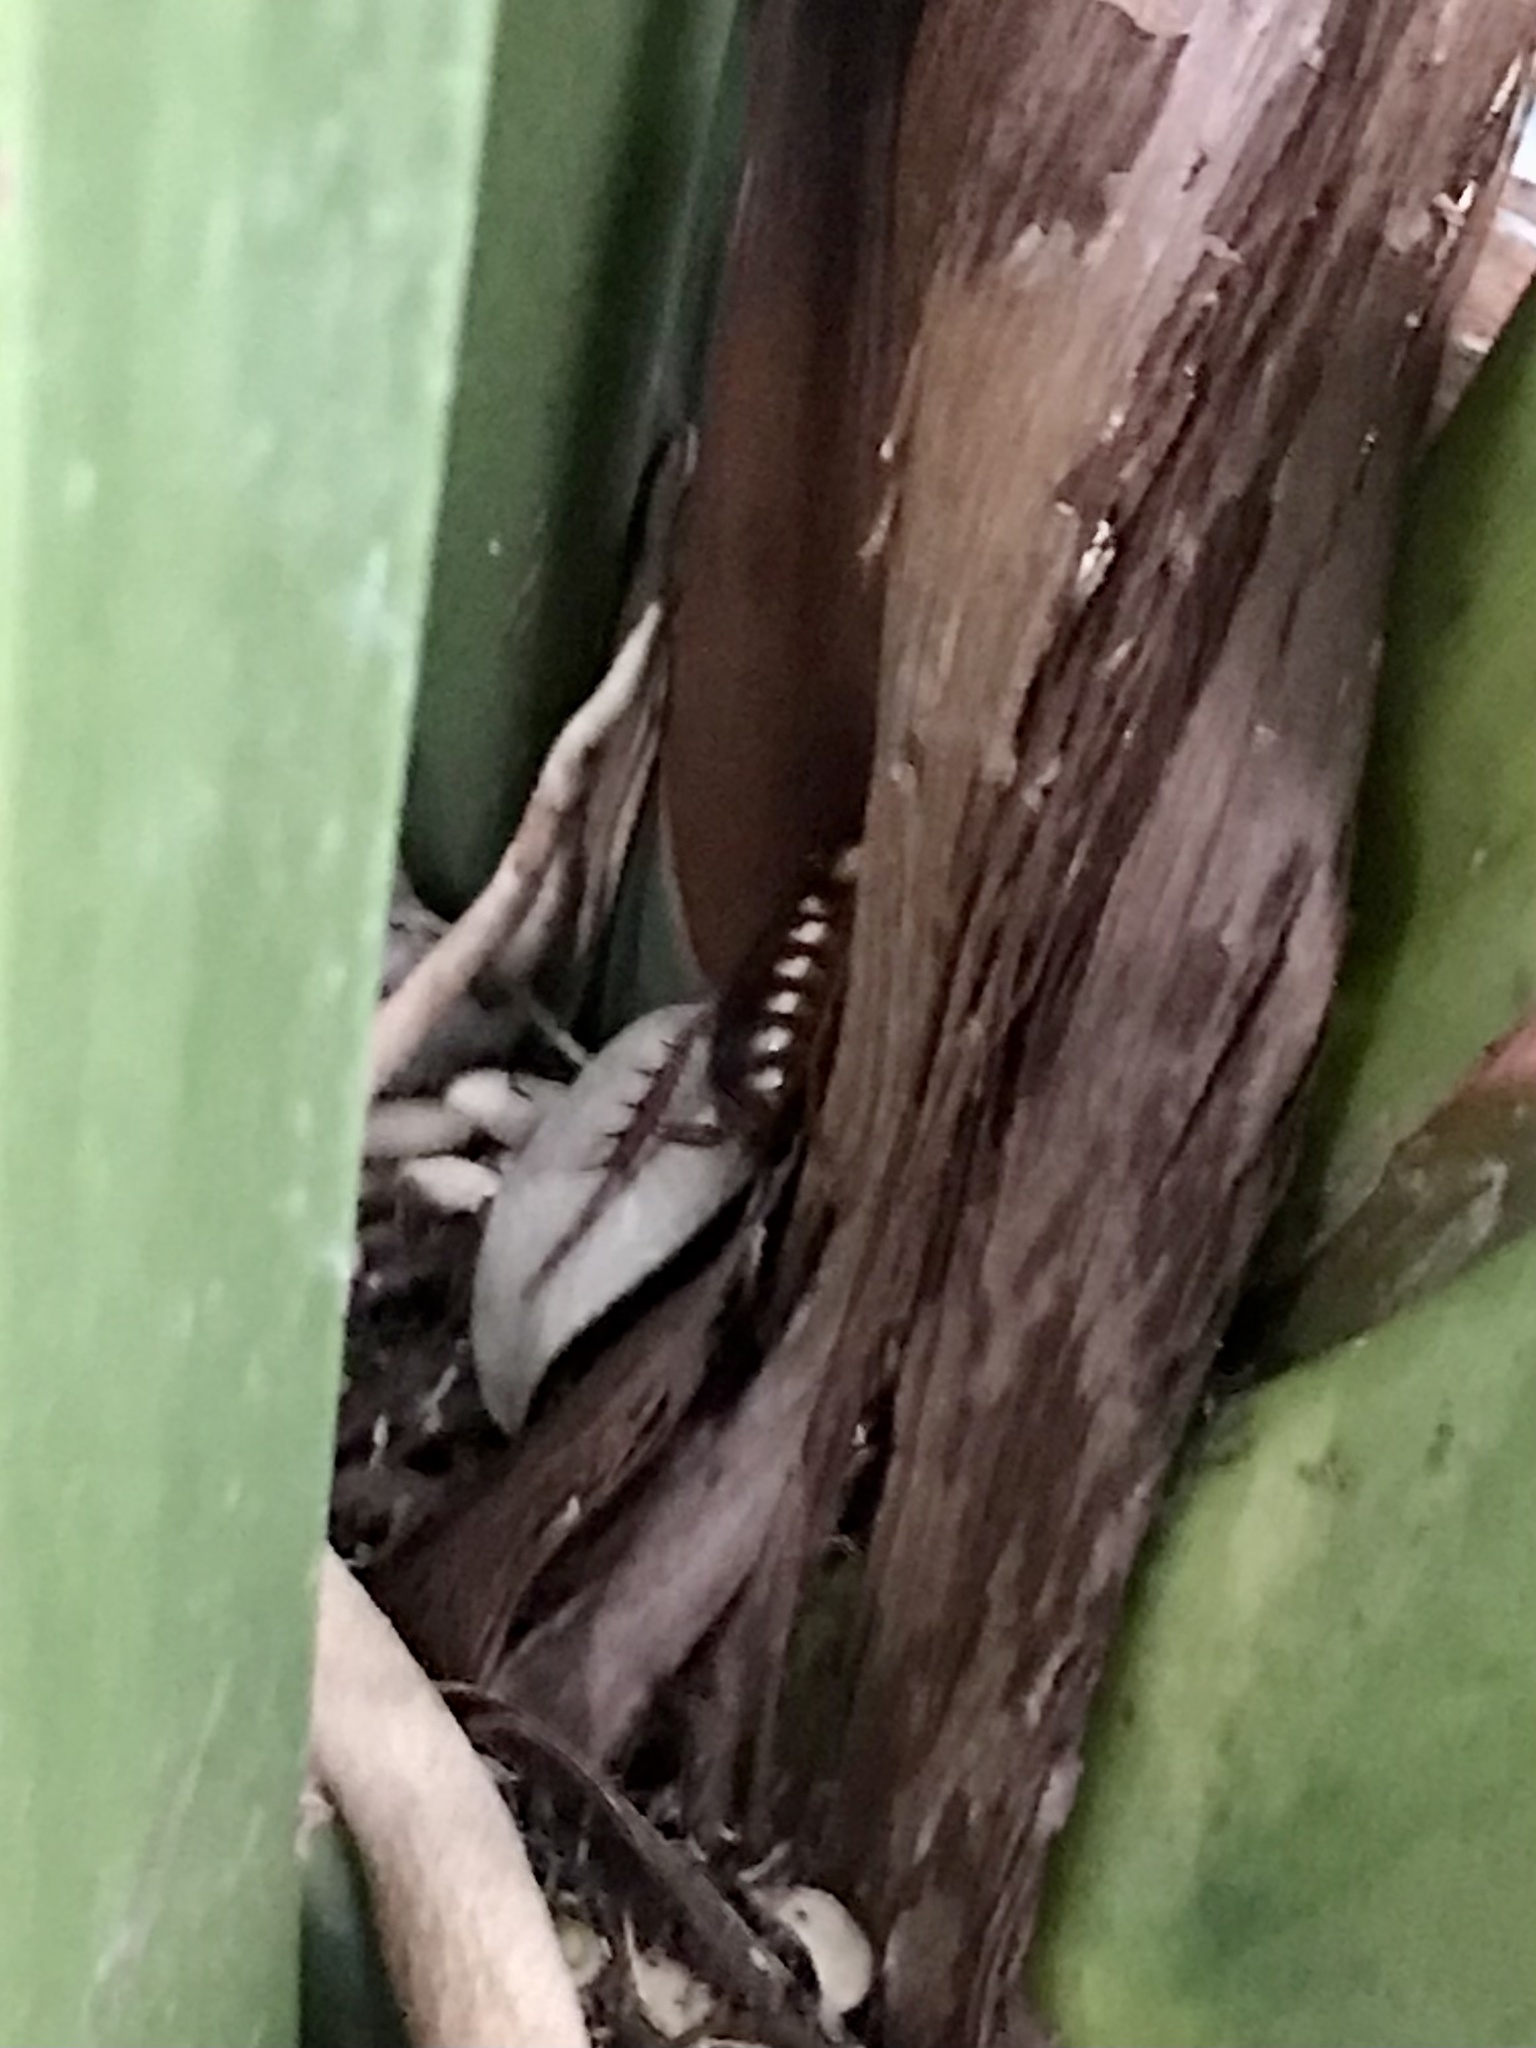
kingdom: Animalia
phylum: Arthropoda
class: Insecta
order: Blattodea
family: Blattidae
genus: Periplaneta
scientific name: Periplaneta australasiae
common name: Australian cockroach
